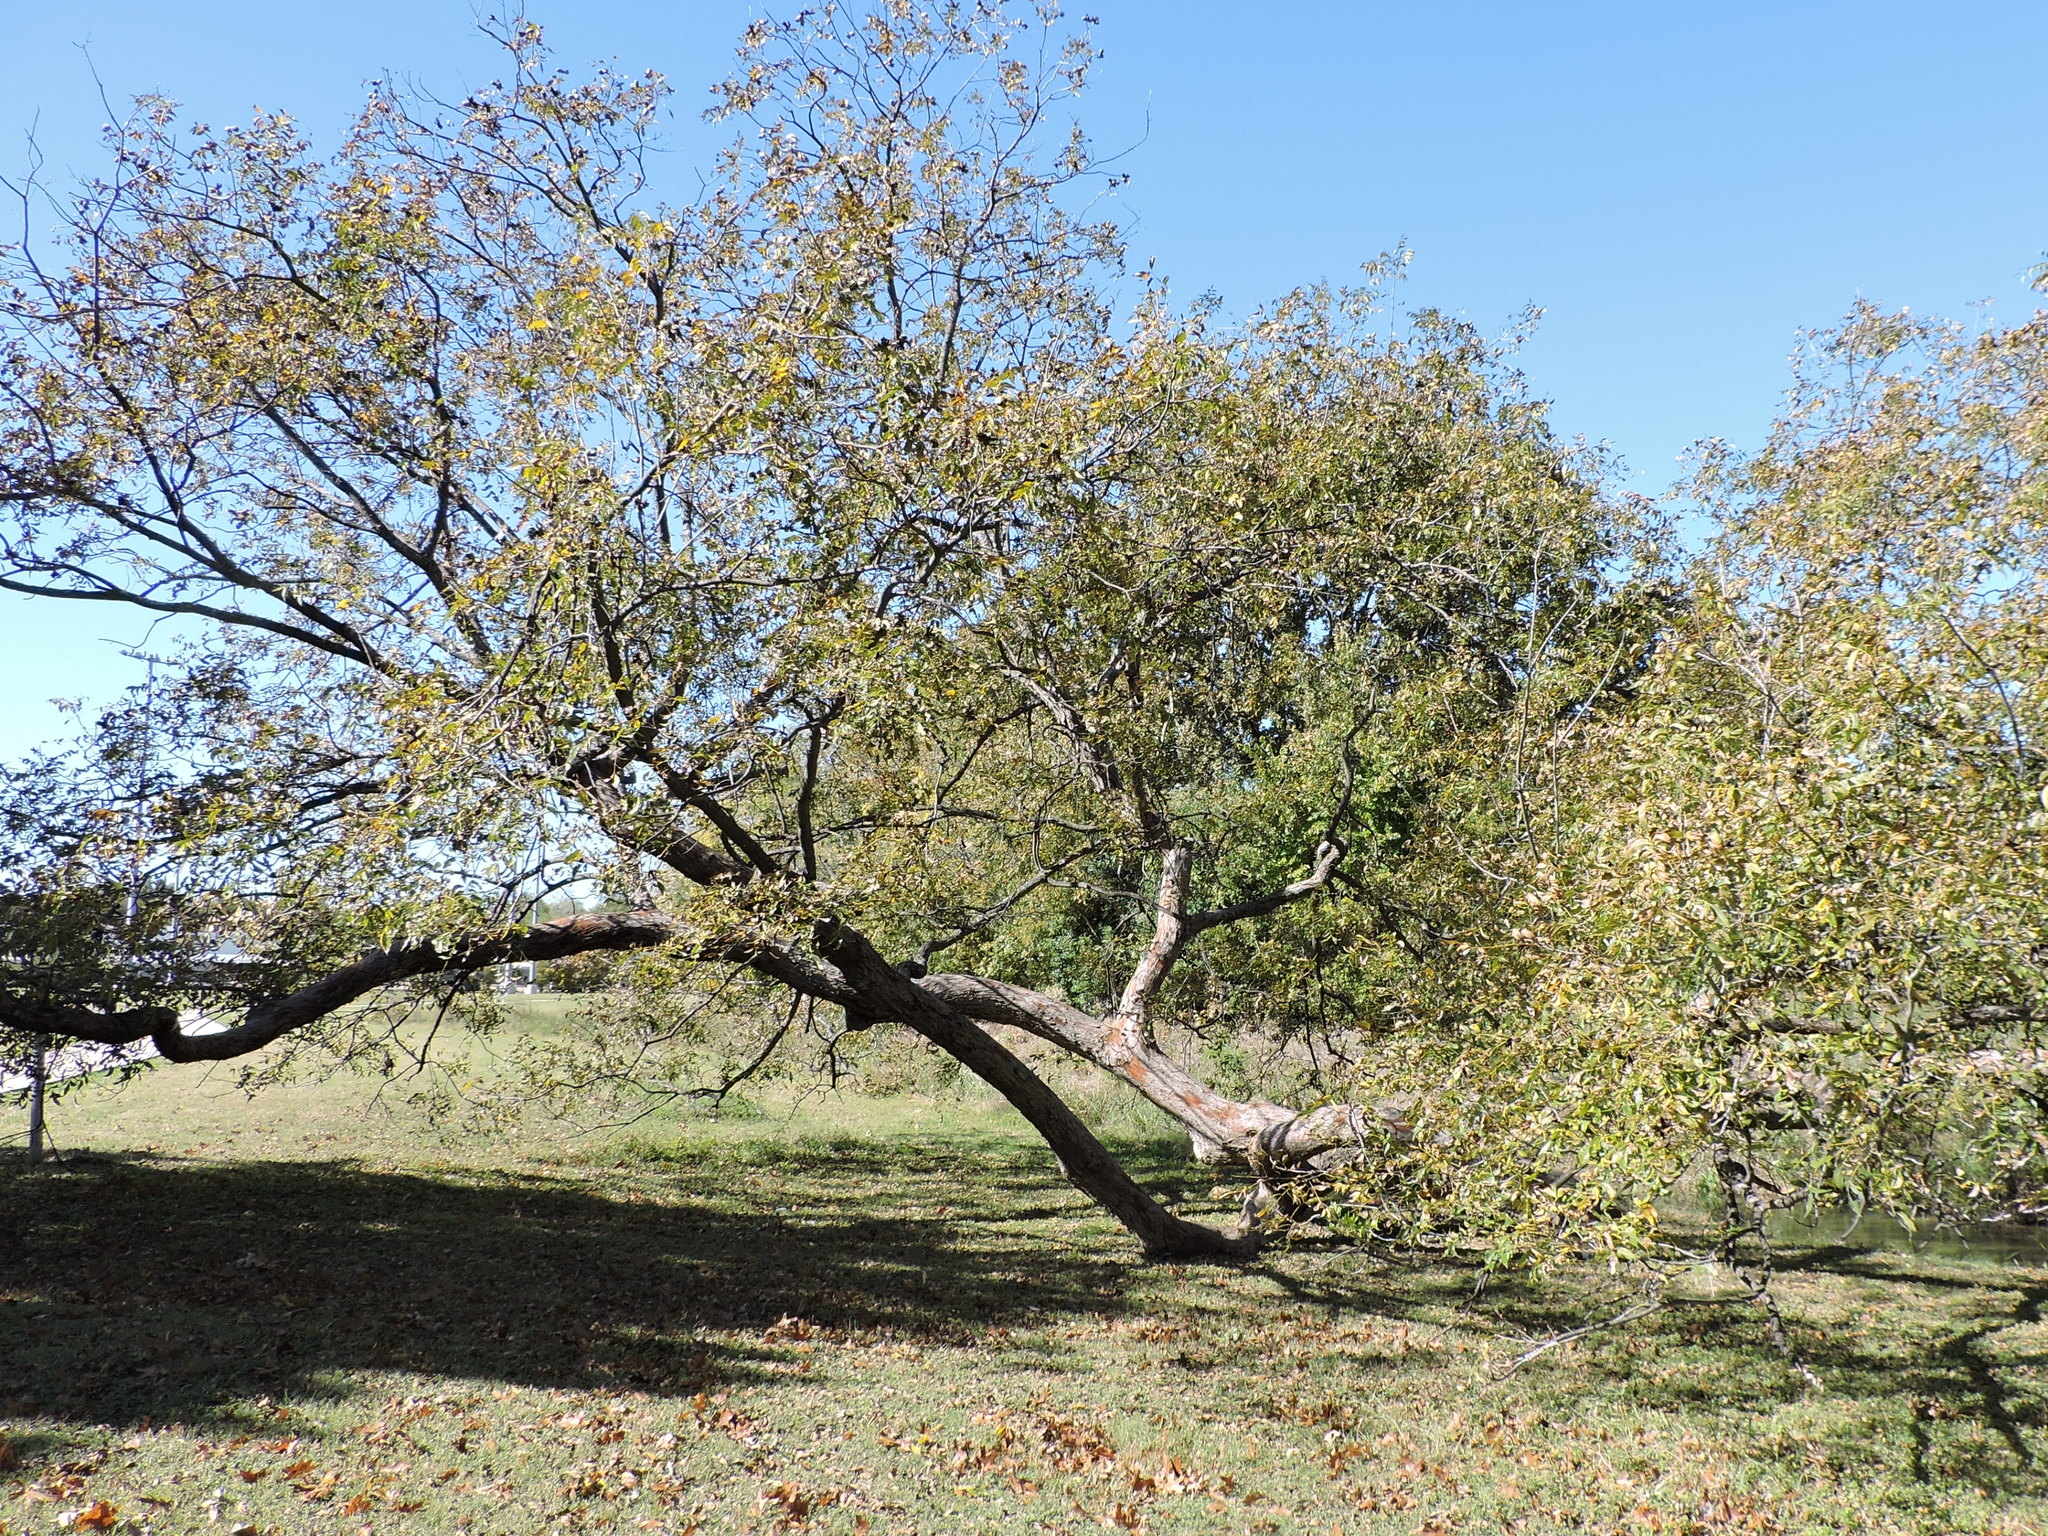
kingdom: Plantae
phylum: Tracheophyta
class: Magnoliopsida
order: Fagales
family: Juglandaceae
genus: Carya
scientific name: Carya illinoinensis
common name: Pecan
